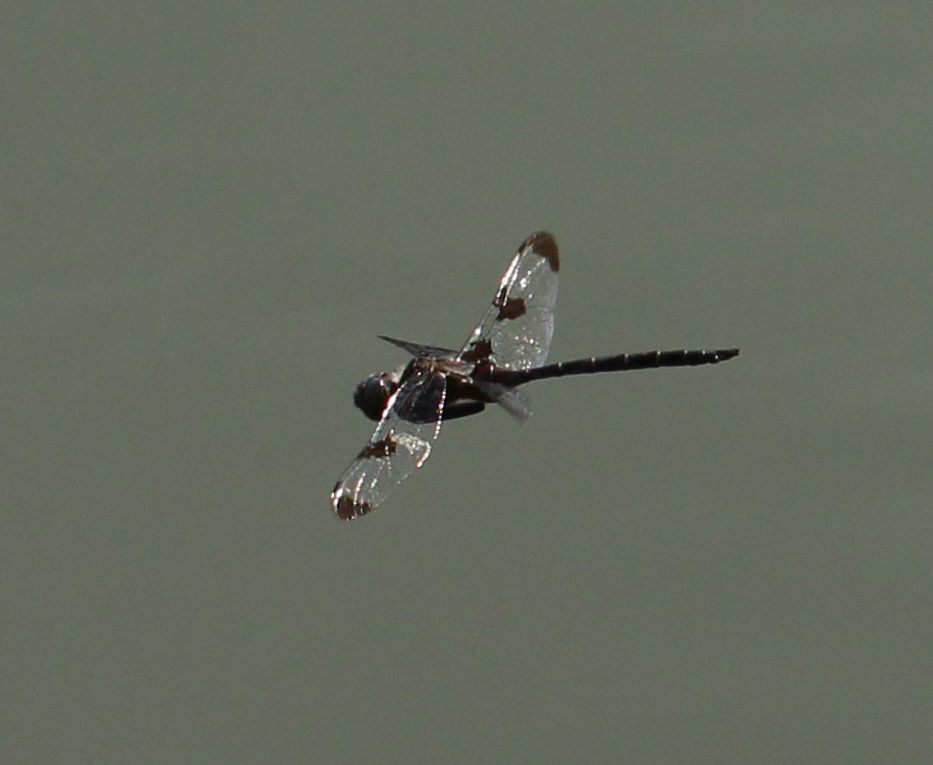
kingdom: Animalia
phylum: Arthropoda
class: Insecta
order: Odonata
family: Corduliidae
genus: Epitheca
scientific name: Epitheca princeps
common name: Prince baskettail
